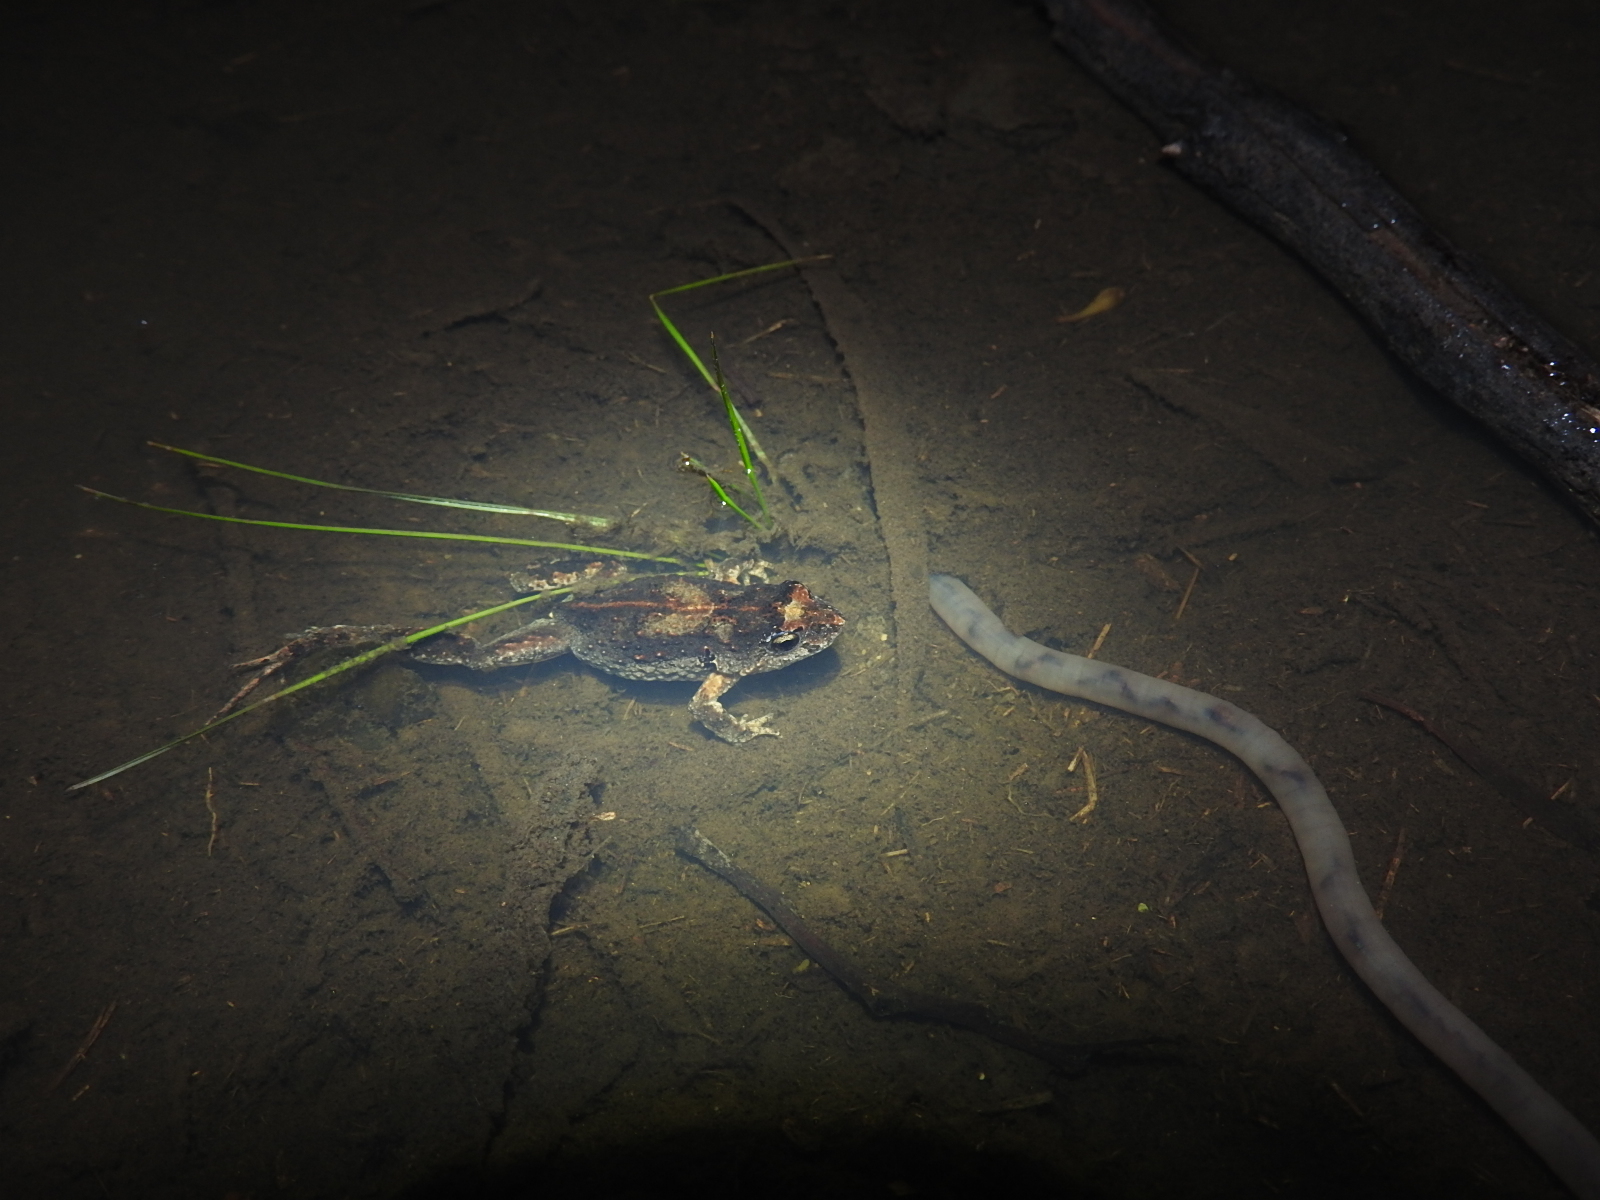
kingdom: Animalia
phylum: Chordata
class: Amphibia
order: Anura
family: Myobatrachidae
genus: Crinia
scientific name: Crinia signifera
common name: Brown froglet
